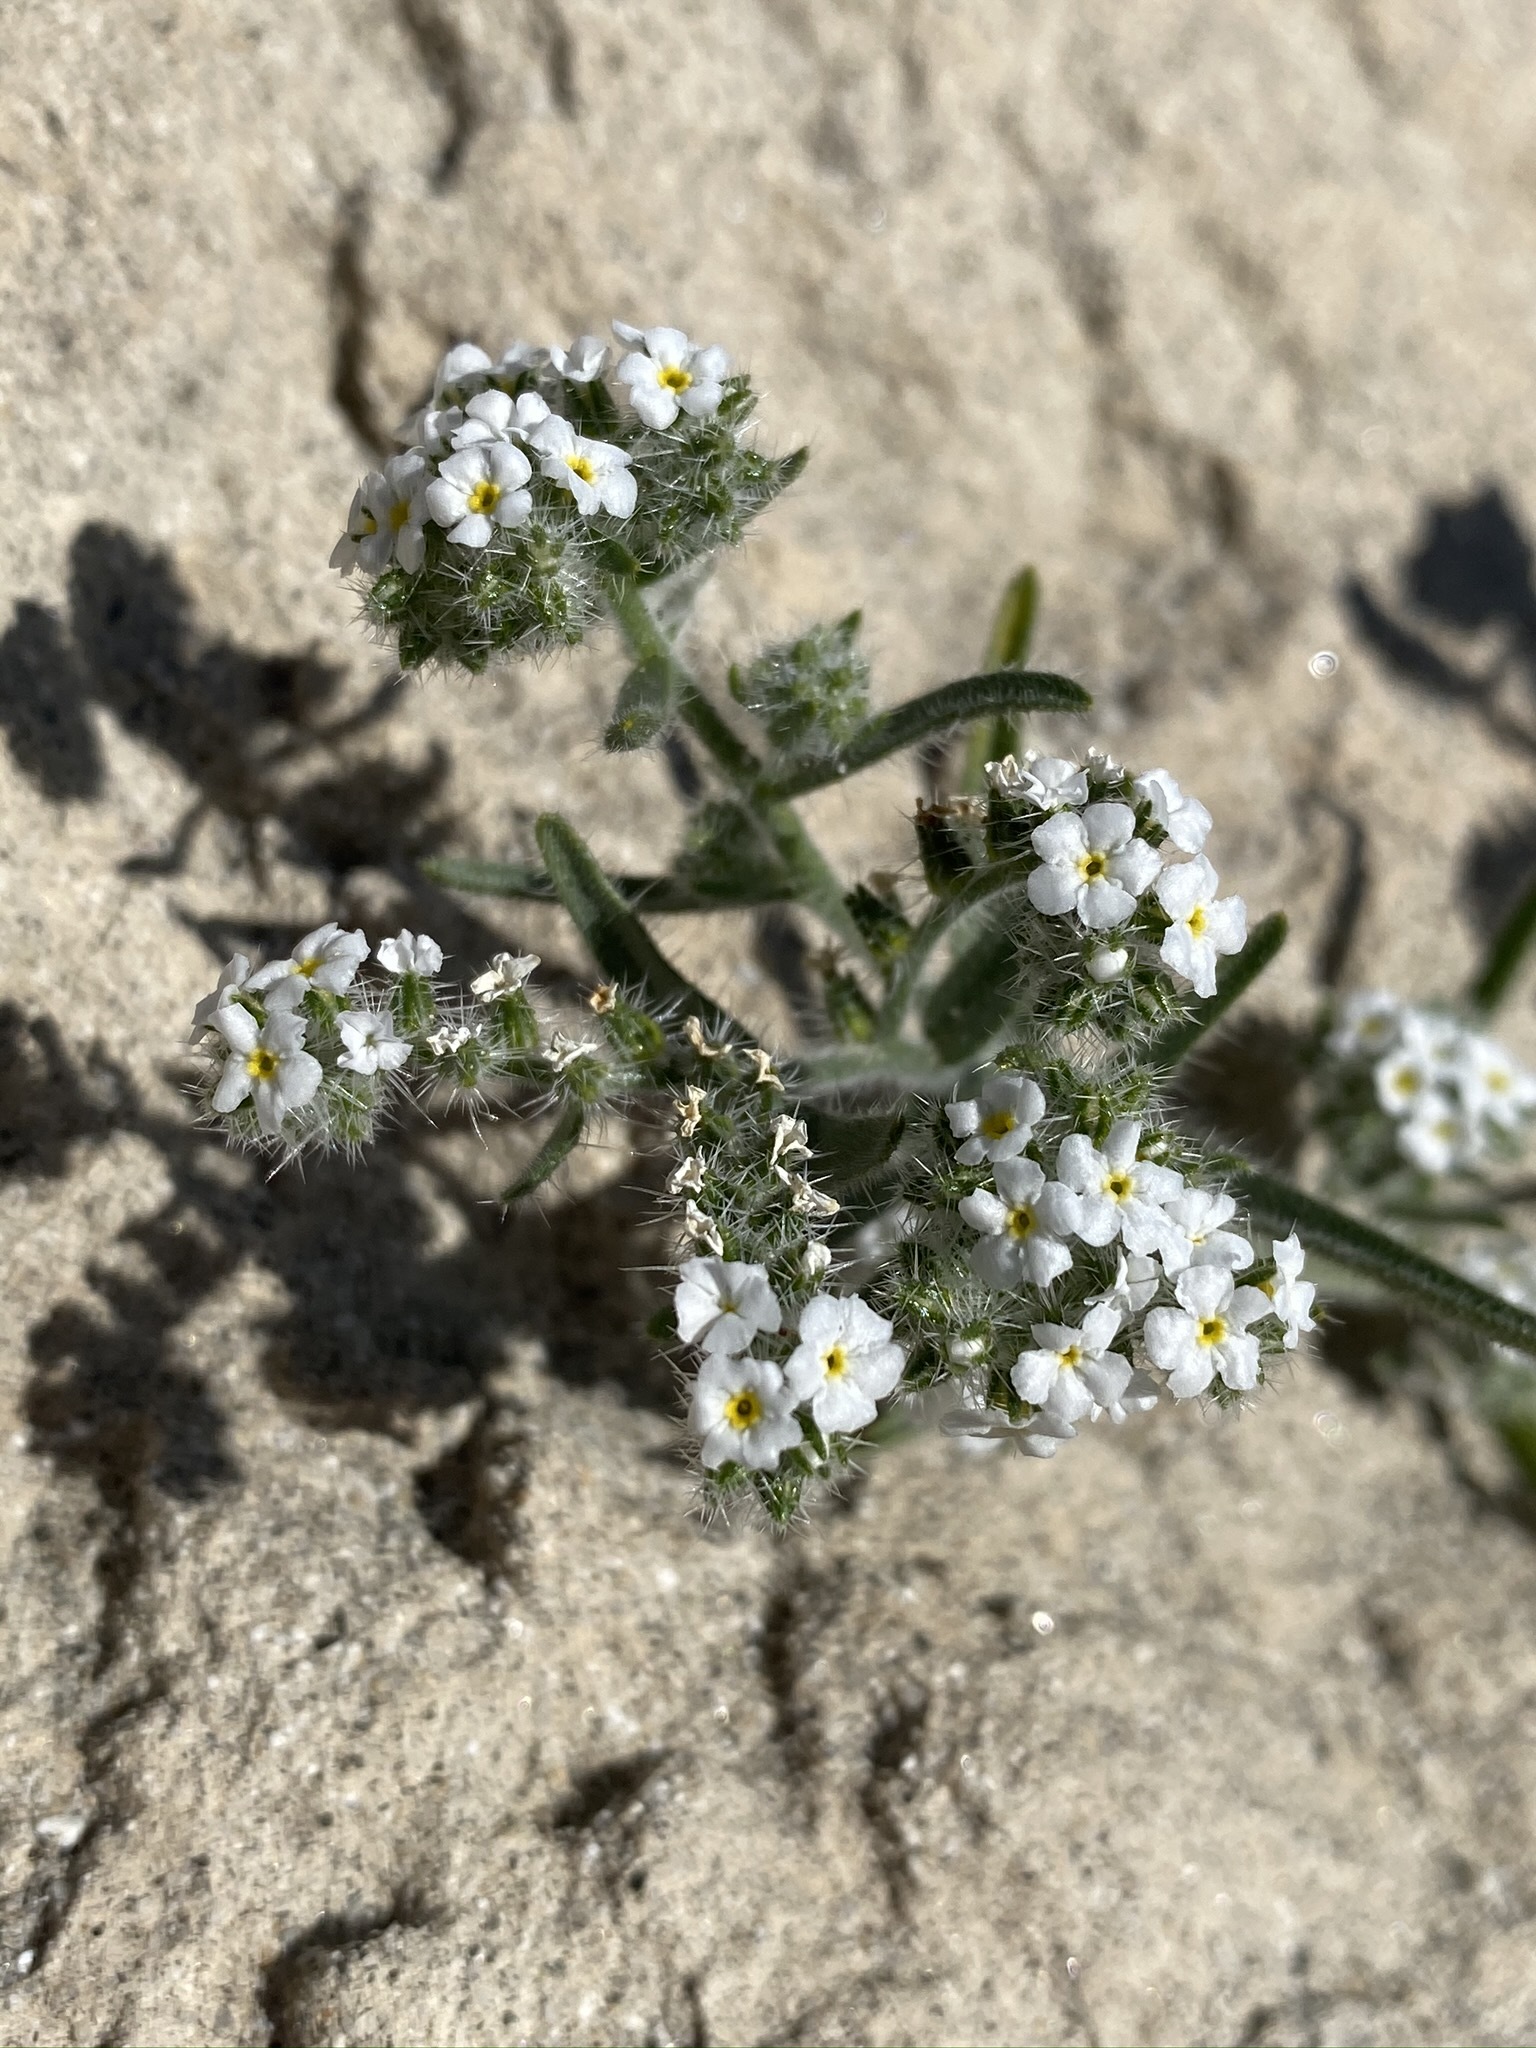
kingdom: Plantae
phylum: Tracheophyta
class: Magnoliopsida
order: Boraginales
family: Boraginaceae
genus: Johnstonella
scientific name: Johnstonella angustifolia
